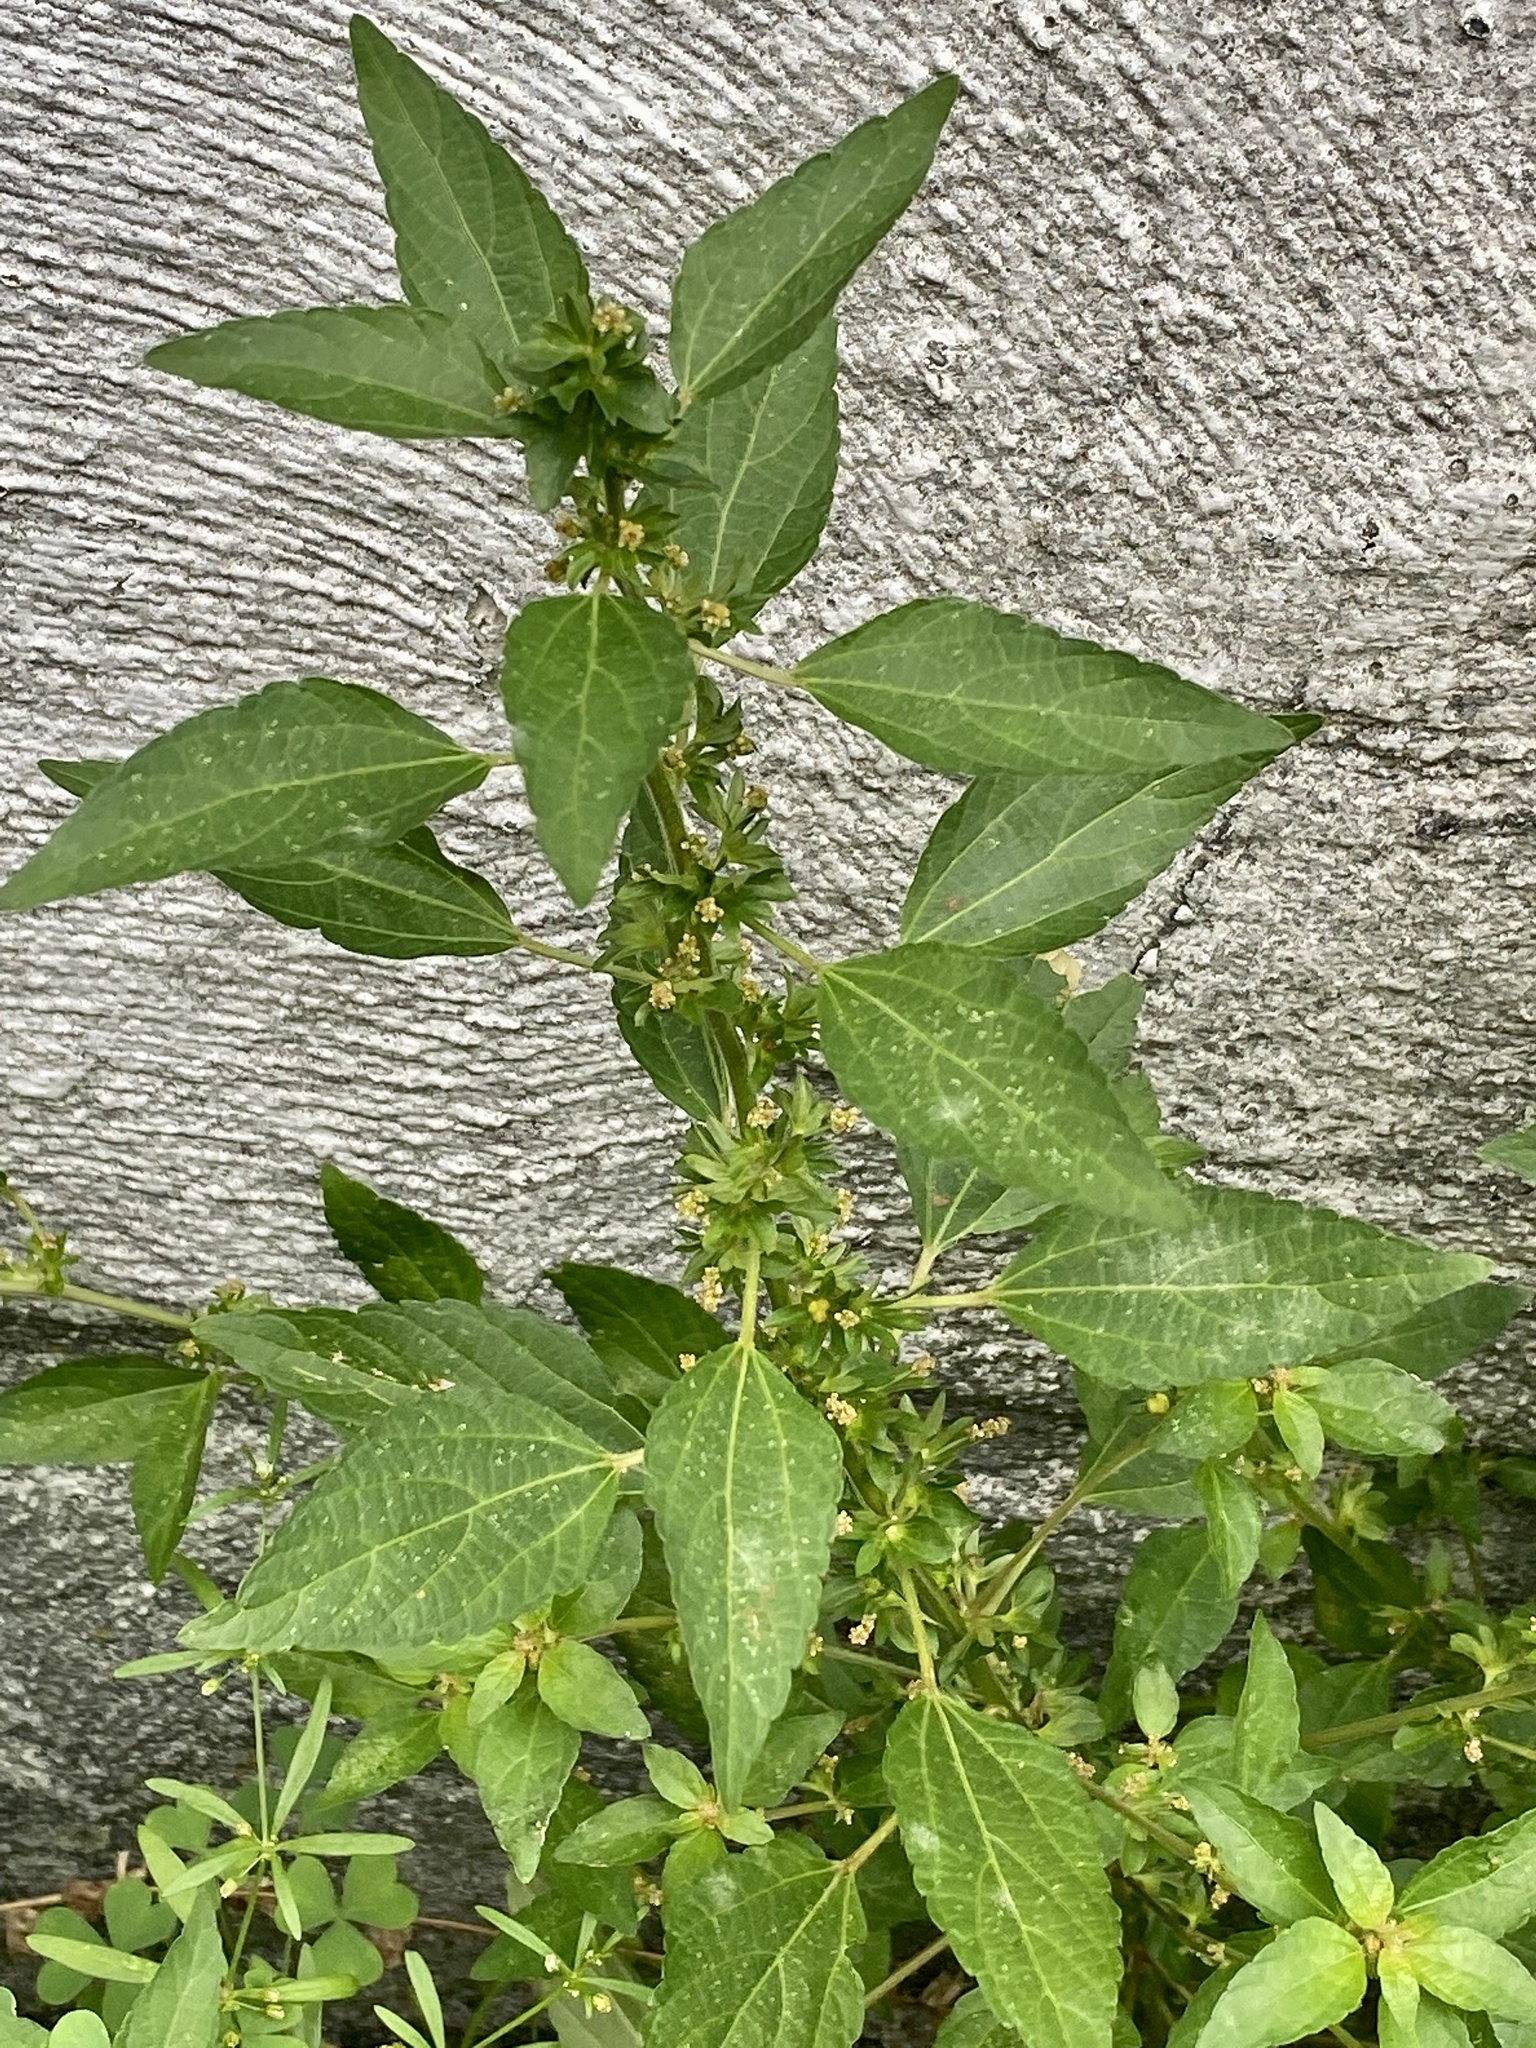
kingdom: Plantae
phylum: Tracheophyta
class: Magnoliopsida
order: Malpighiales
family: Euphorbiaceae
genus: Acalypha
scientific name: Acalypha rhomboidea
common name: Rhombic copperleaf
